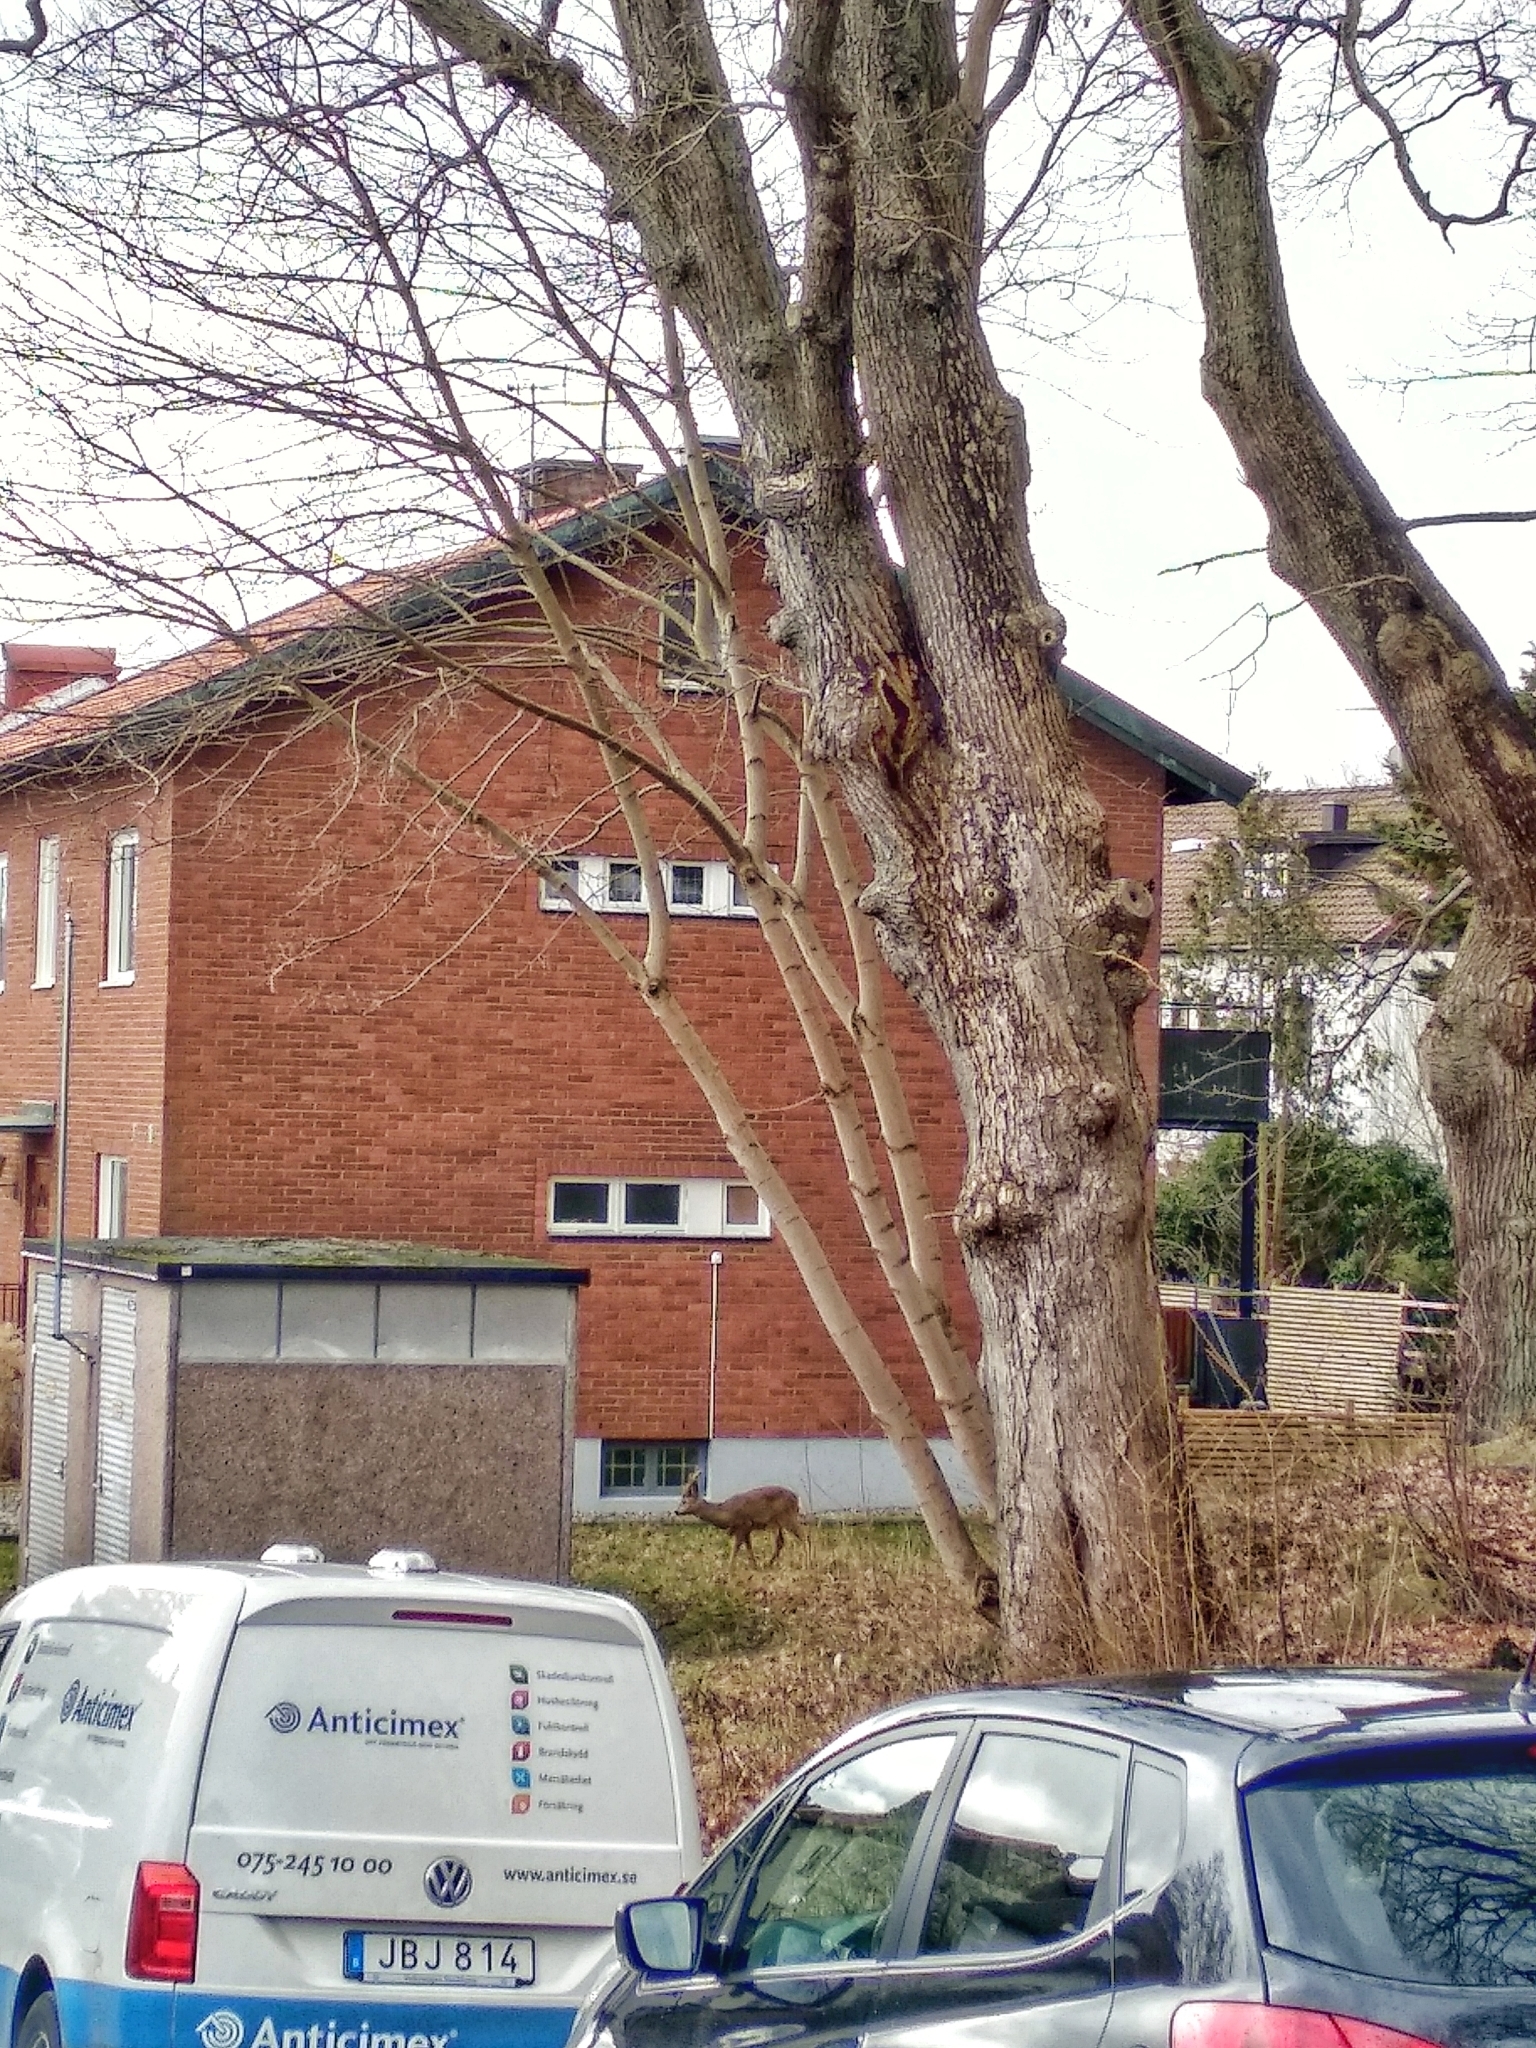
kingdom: Animalia
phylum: Chordata
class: Mammalia
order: Artiodactyla
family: Cervidae
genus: Capreolus
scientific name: Capreolus capreolus
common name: Western roe deer
